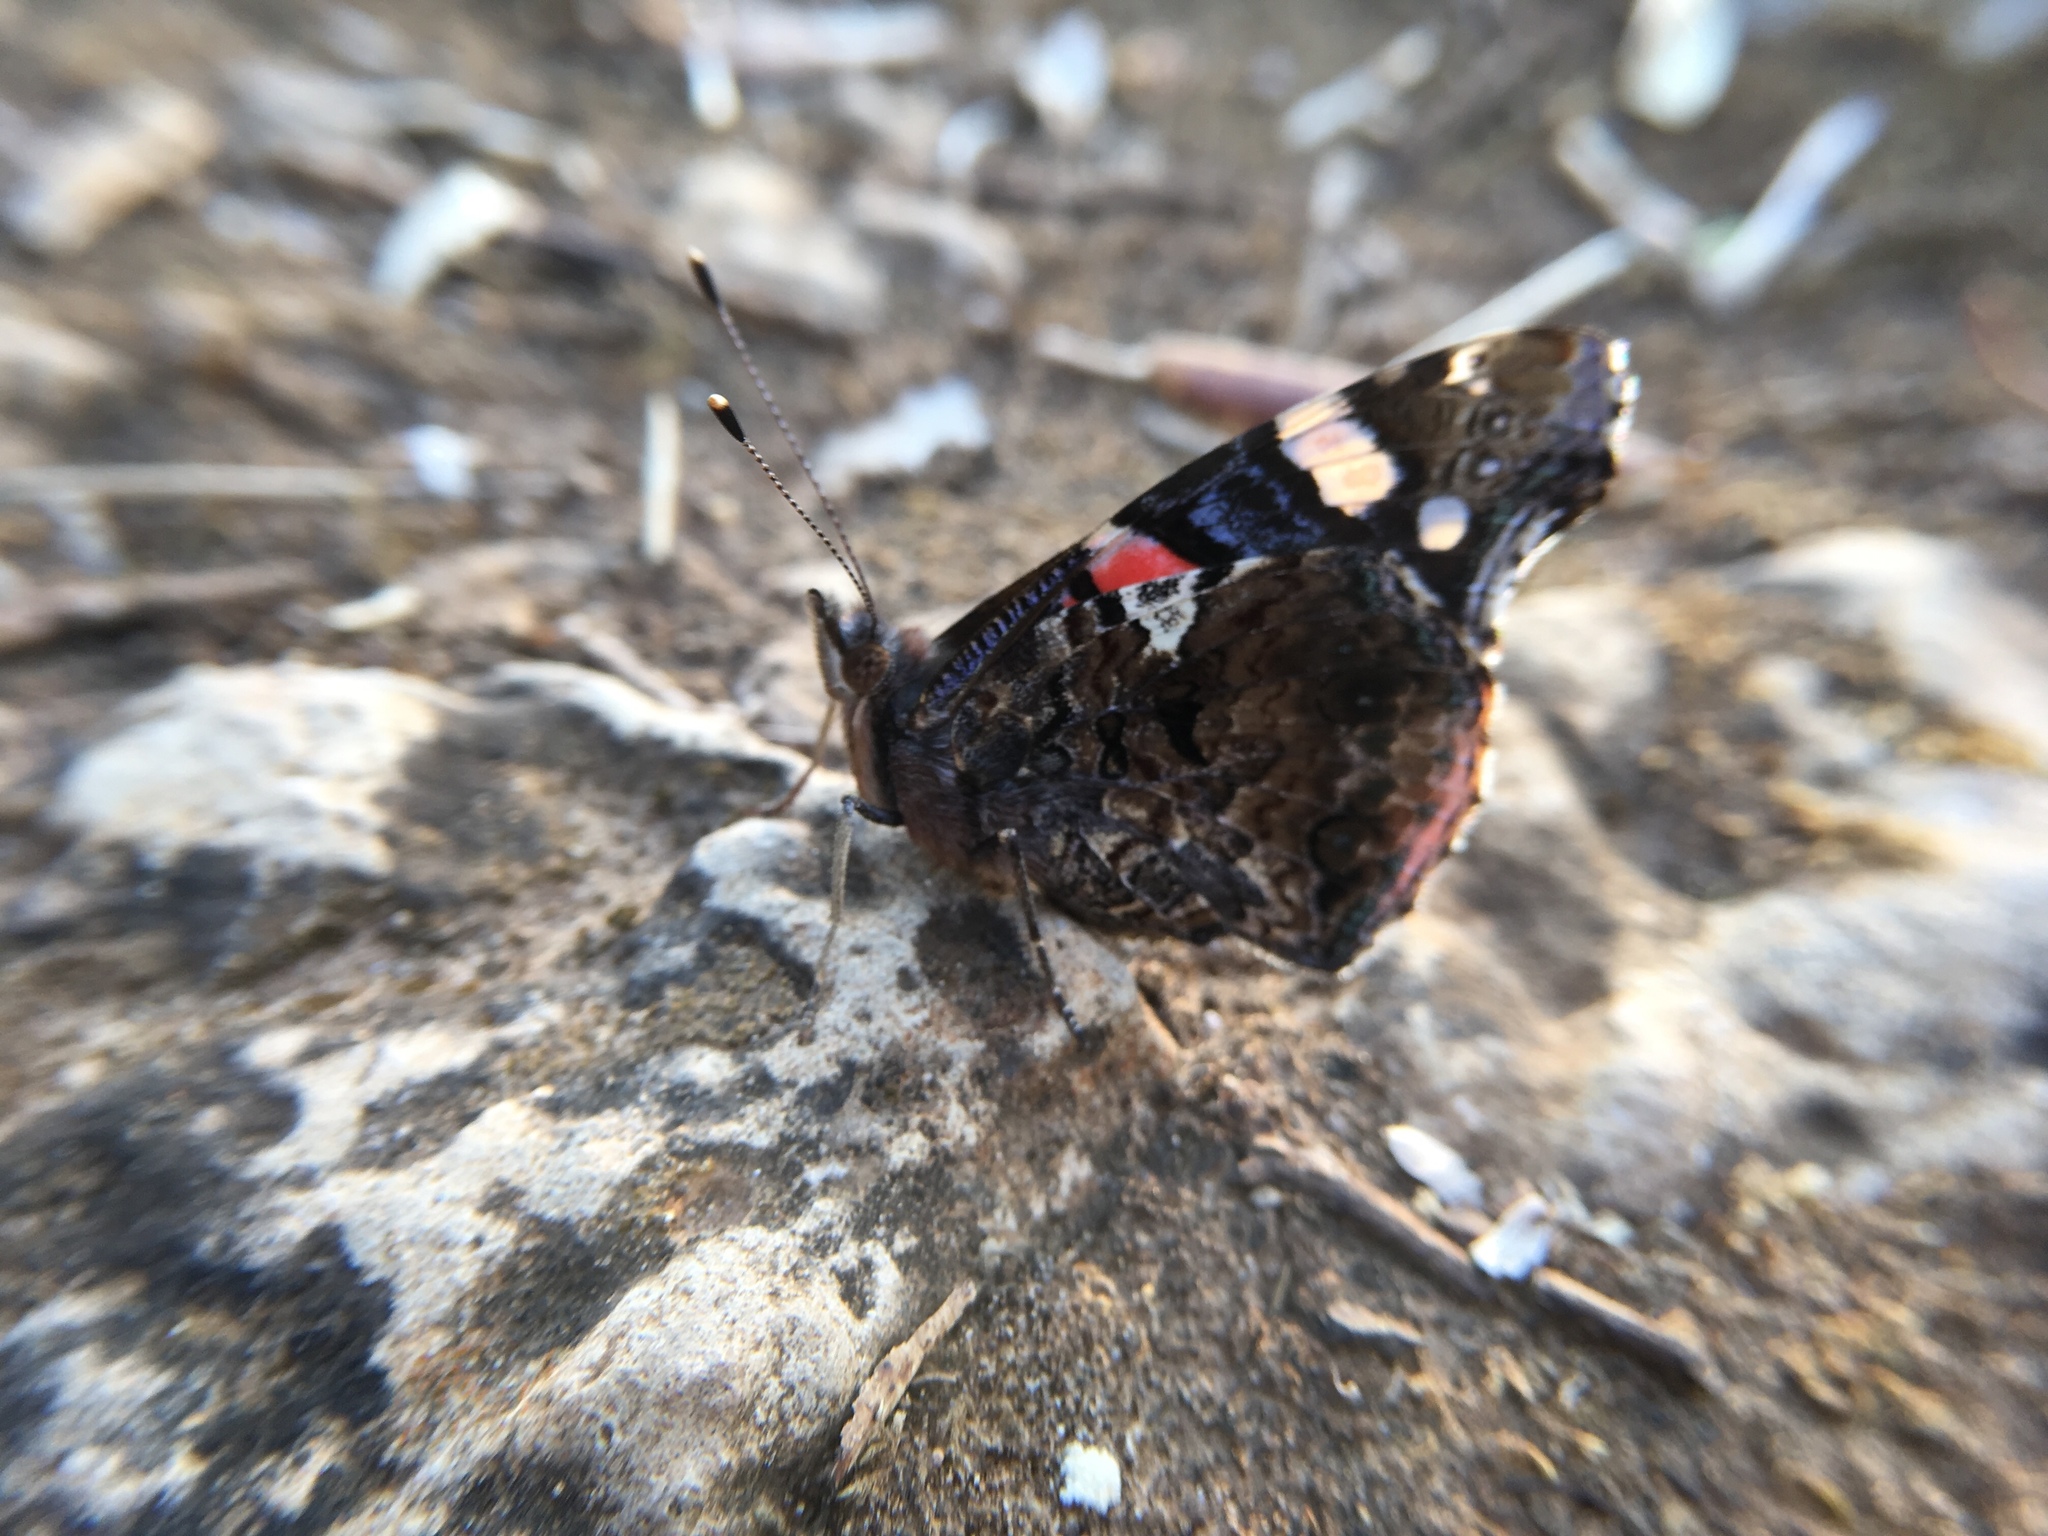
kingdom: Animalia
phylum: Arthropoda
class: Insecta
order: Lepidoptera
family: Nymphalidae
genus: Vanessa
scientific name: Vanessa atalanta
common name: Red admiral
